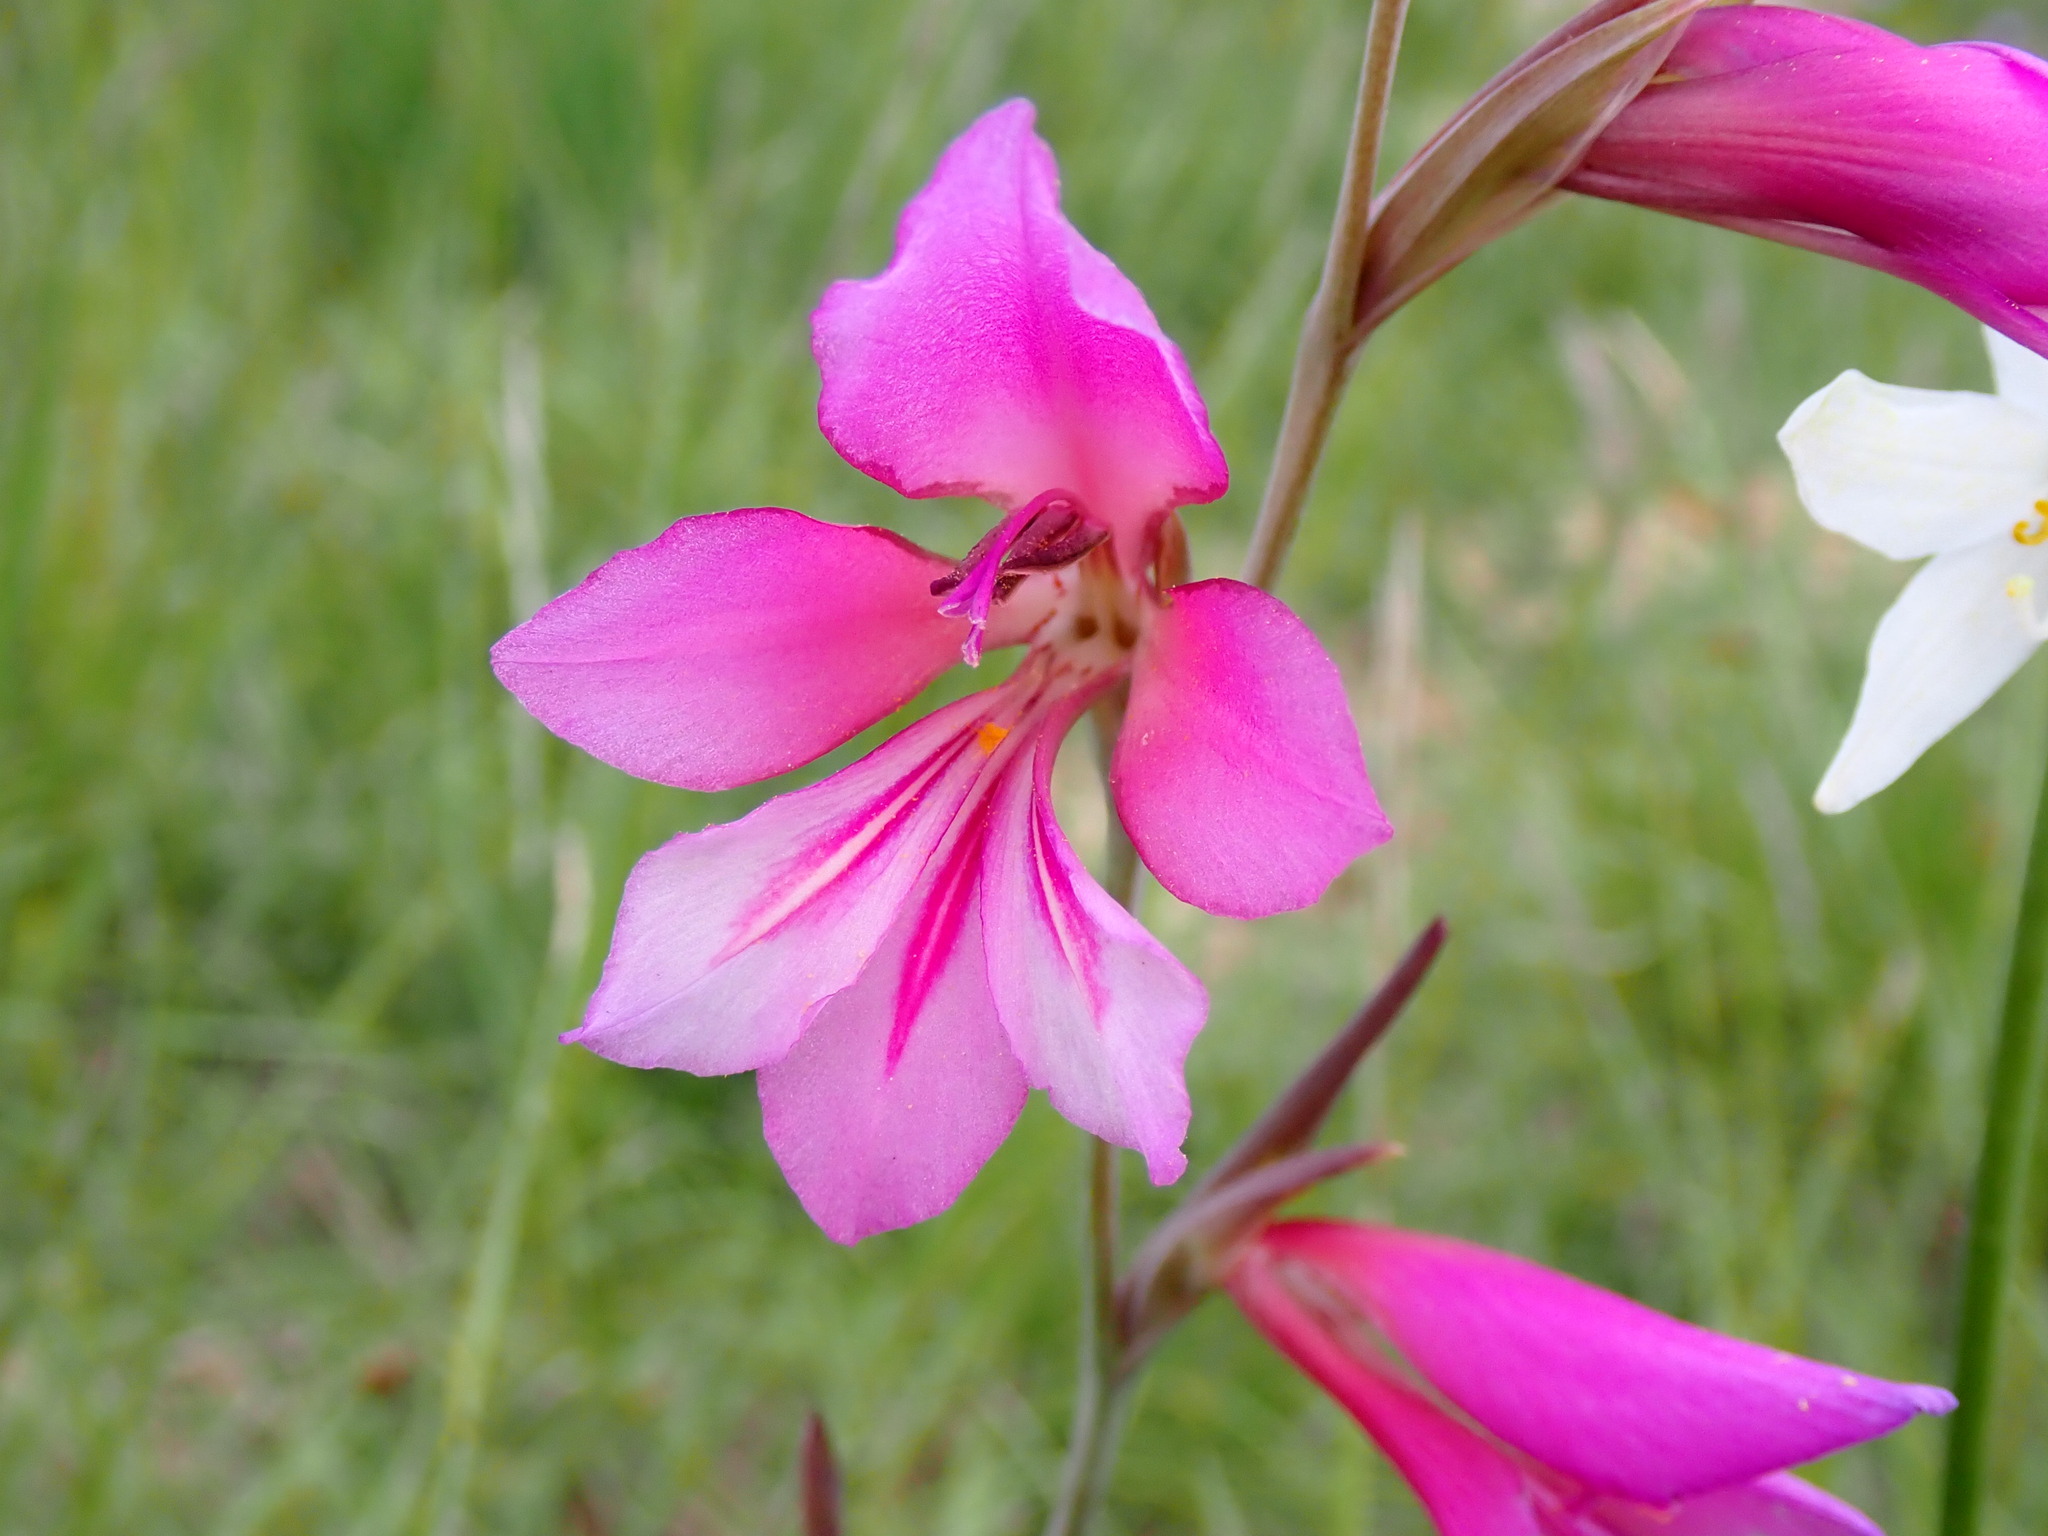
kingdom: Plantae
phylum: Tracheophyta
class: Liliopsida
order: Asparagales
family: Iridaceae
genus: Gladiolus
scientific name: Gladiolus dubius
